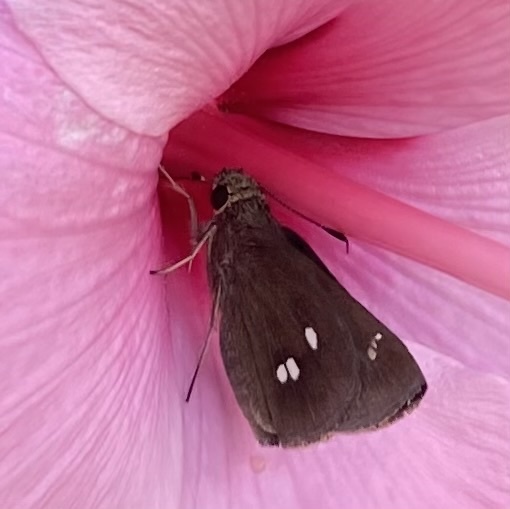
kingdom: Animalia
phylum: Arthropoda
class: Insecta
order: Lepidoptera
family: Hesperiidae
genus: Oligoria
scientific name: Oligoria maculata
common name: Twin-spot skipper
